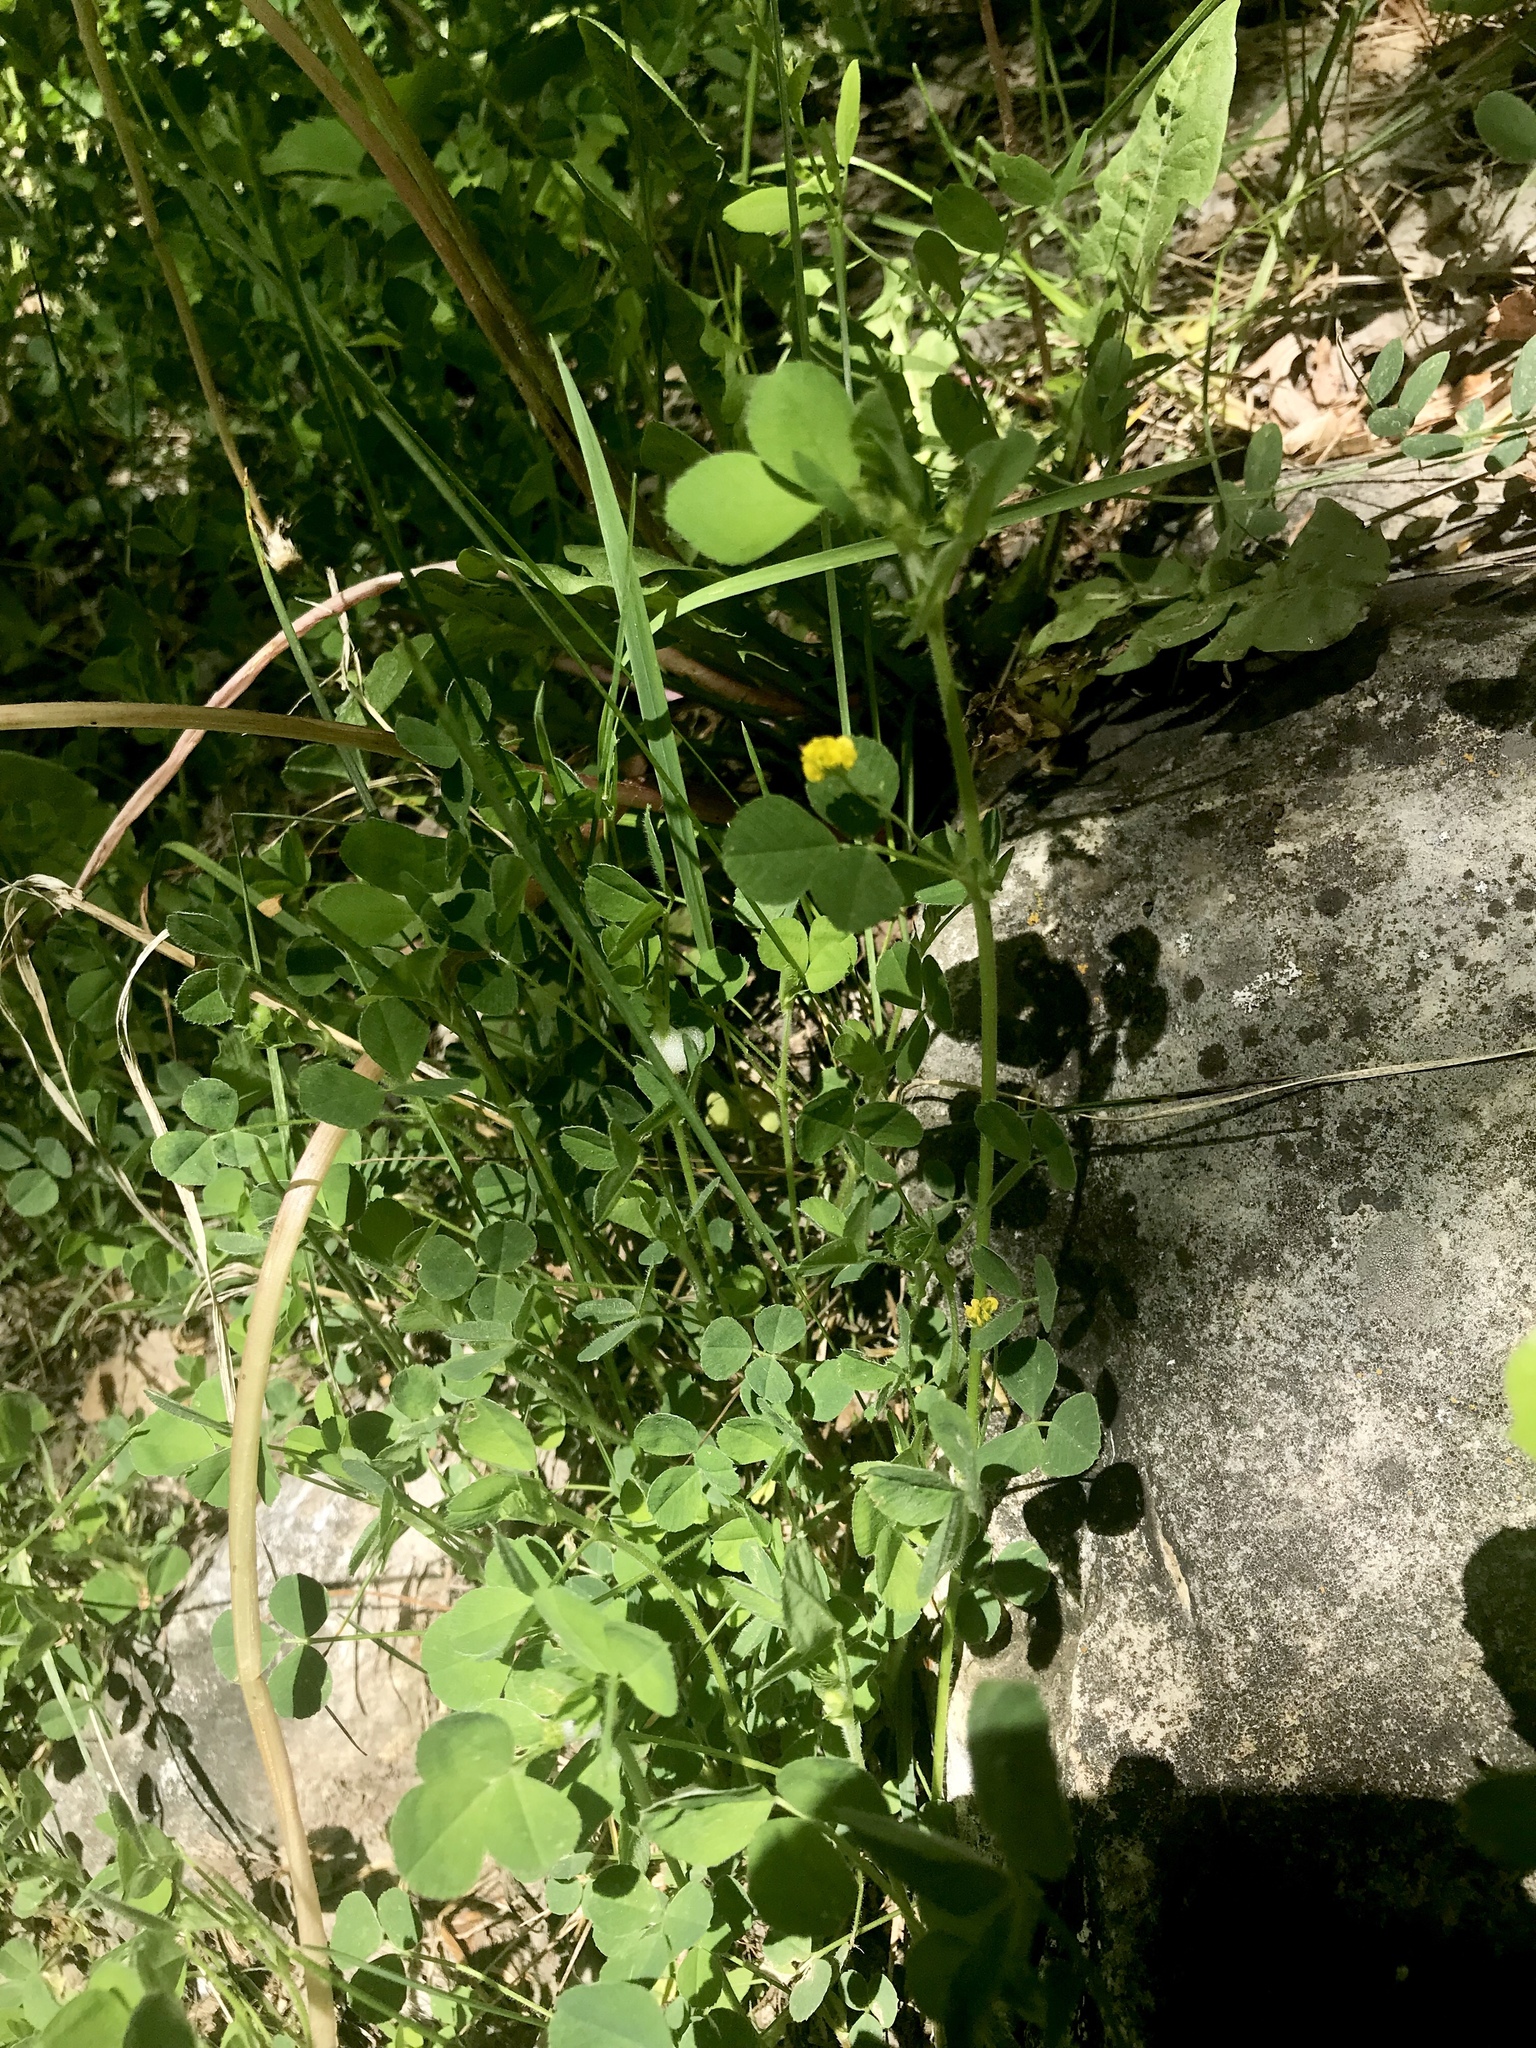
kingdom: Plantae
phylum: Tracheophyta
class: Magnoliopsida
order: Fabales
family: Fabaceae
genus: Medicago
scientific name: Medicago lupulina
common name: Black medick
